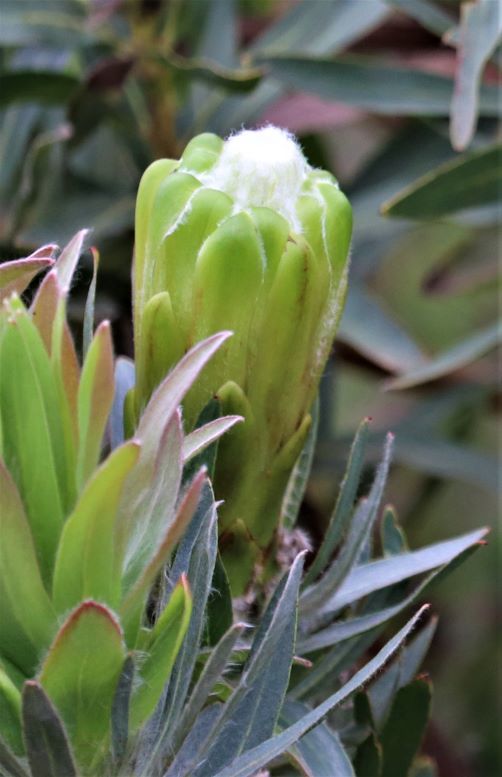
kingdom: Plantae
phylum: Tracheophyta
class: Magnoliopsida
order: Proteales
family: Proteaceae
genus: Protea
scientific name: Protea coronata
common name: Green sugarbush
